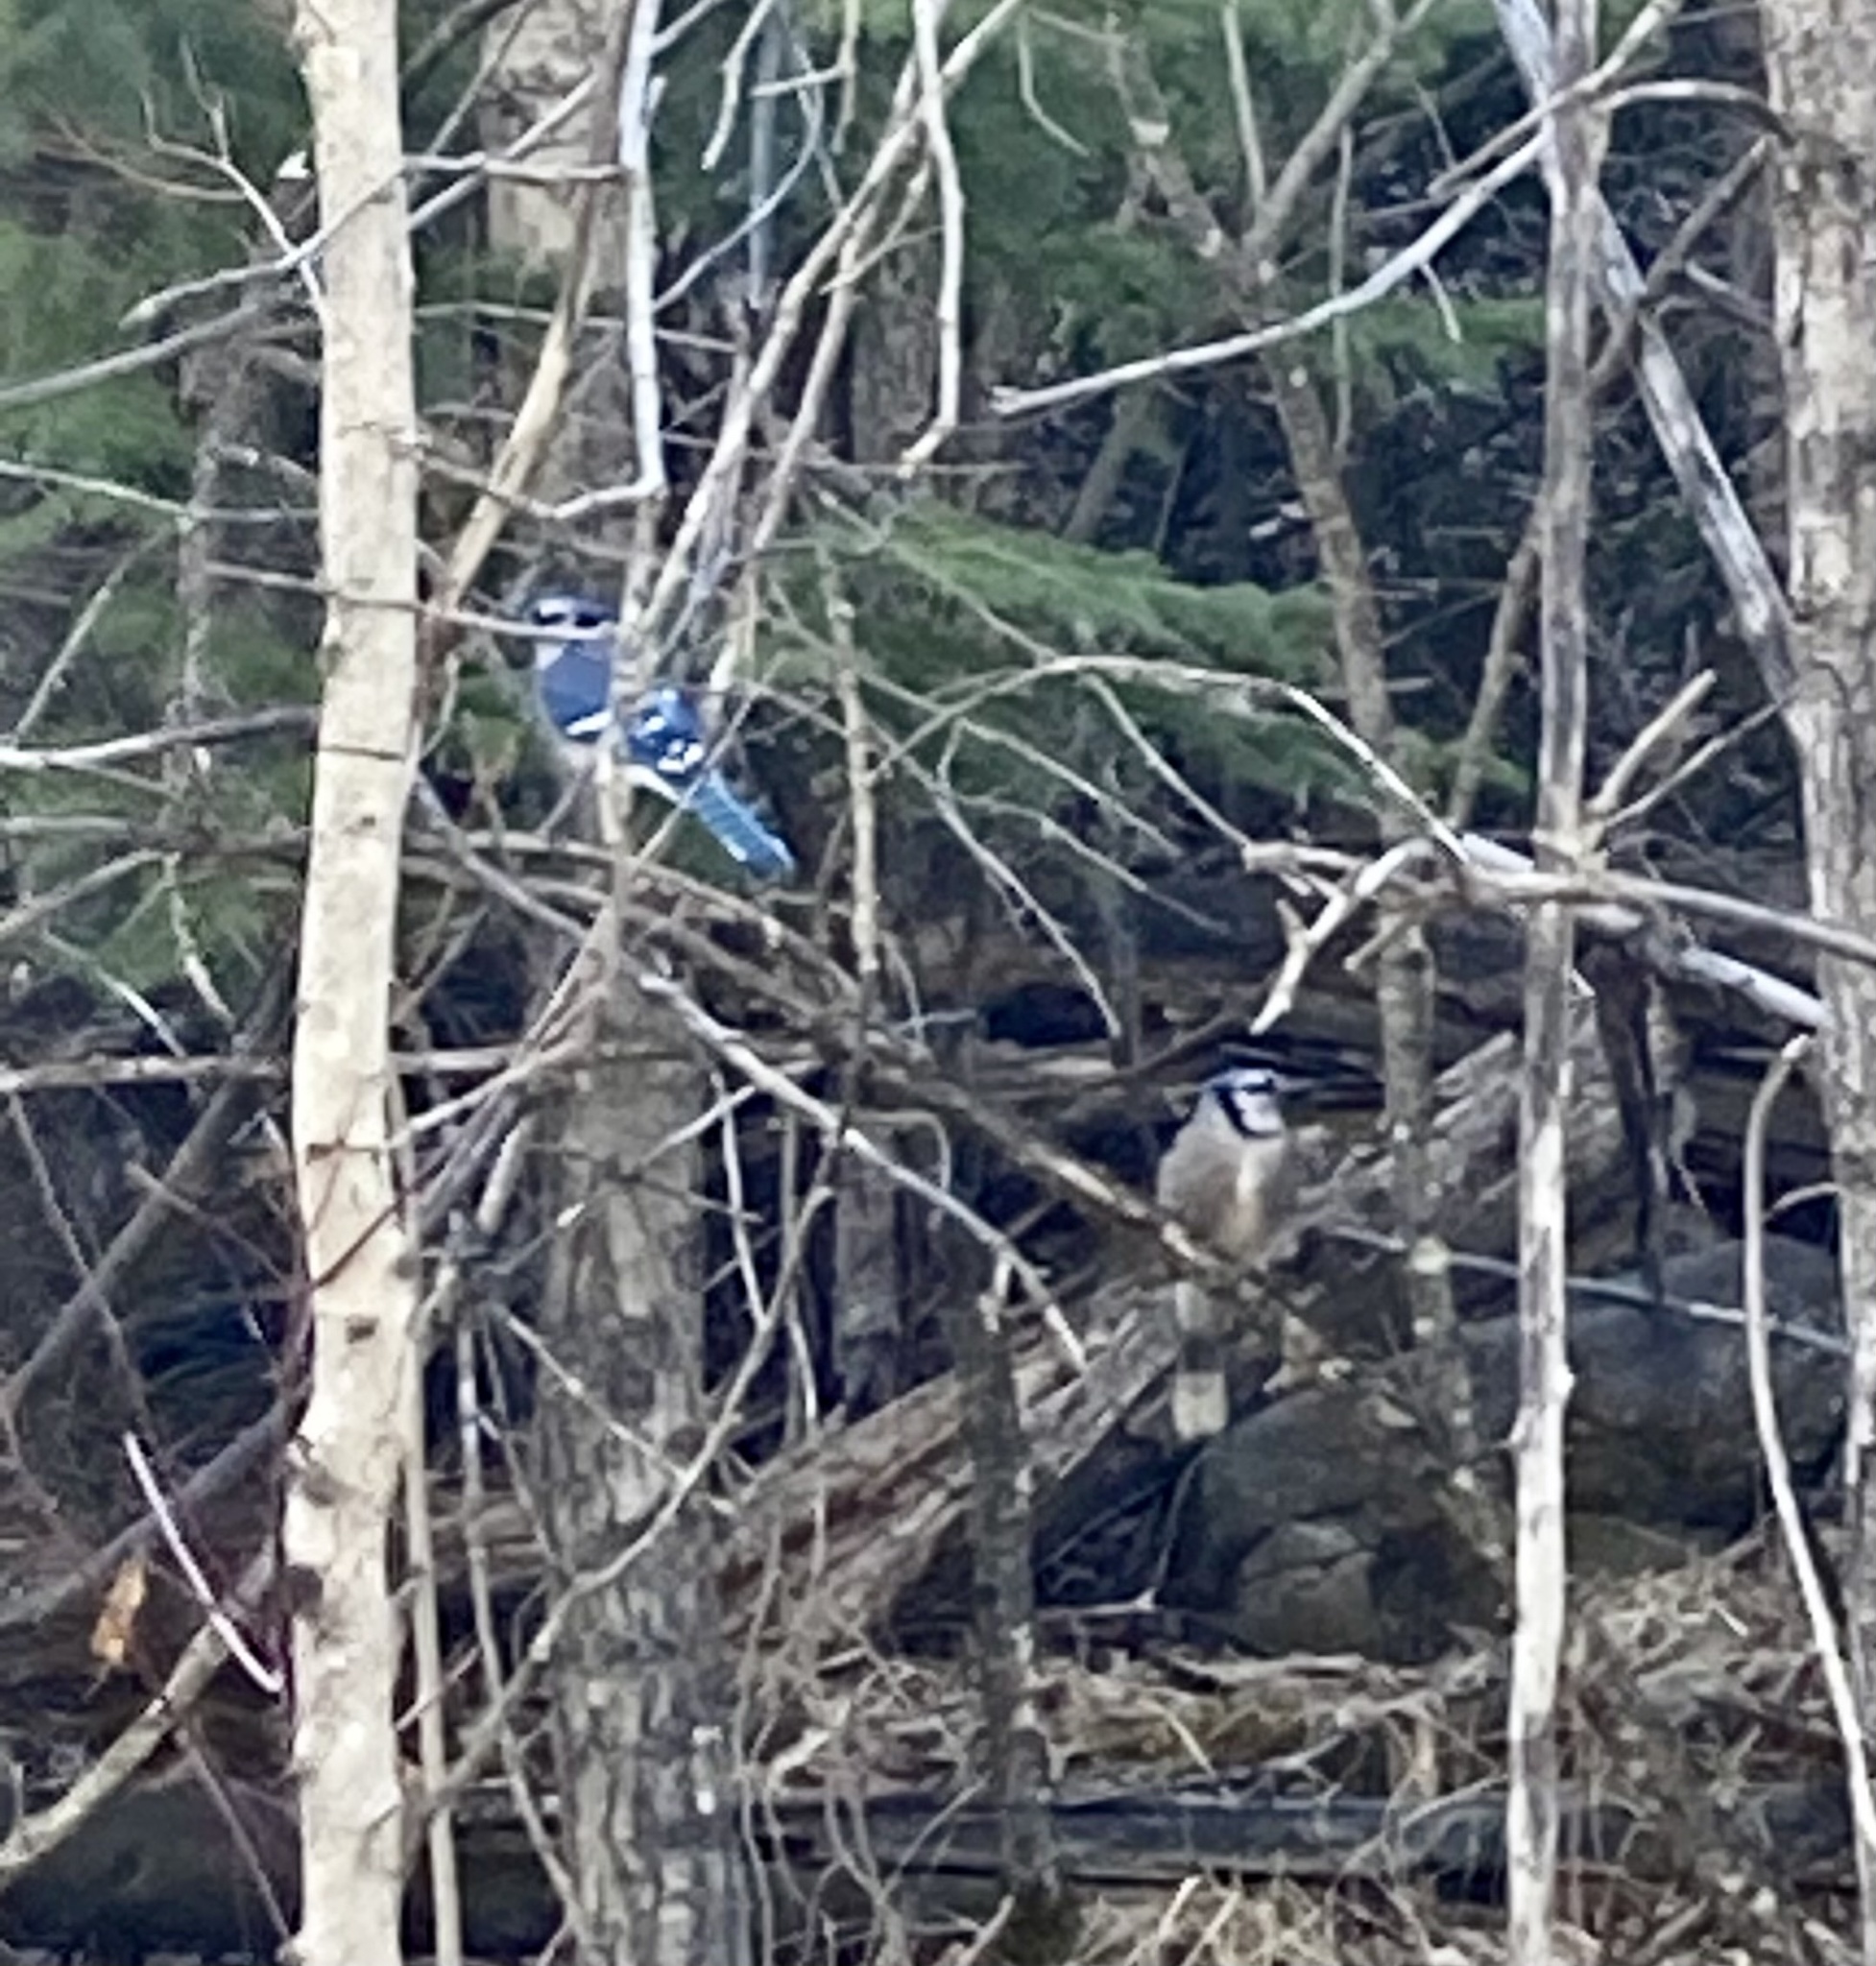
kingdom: Animalia
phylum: Chordata
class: Aves
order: Passeriformes
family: Corvidae
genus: Cyanocitta
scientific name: Cyanocitta cristata
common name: Blue jay
